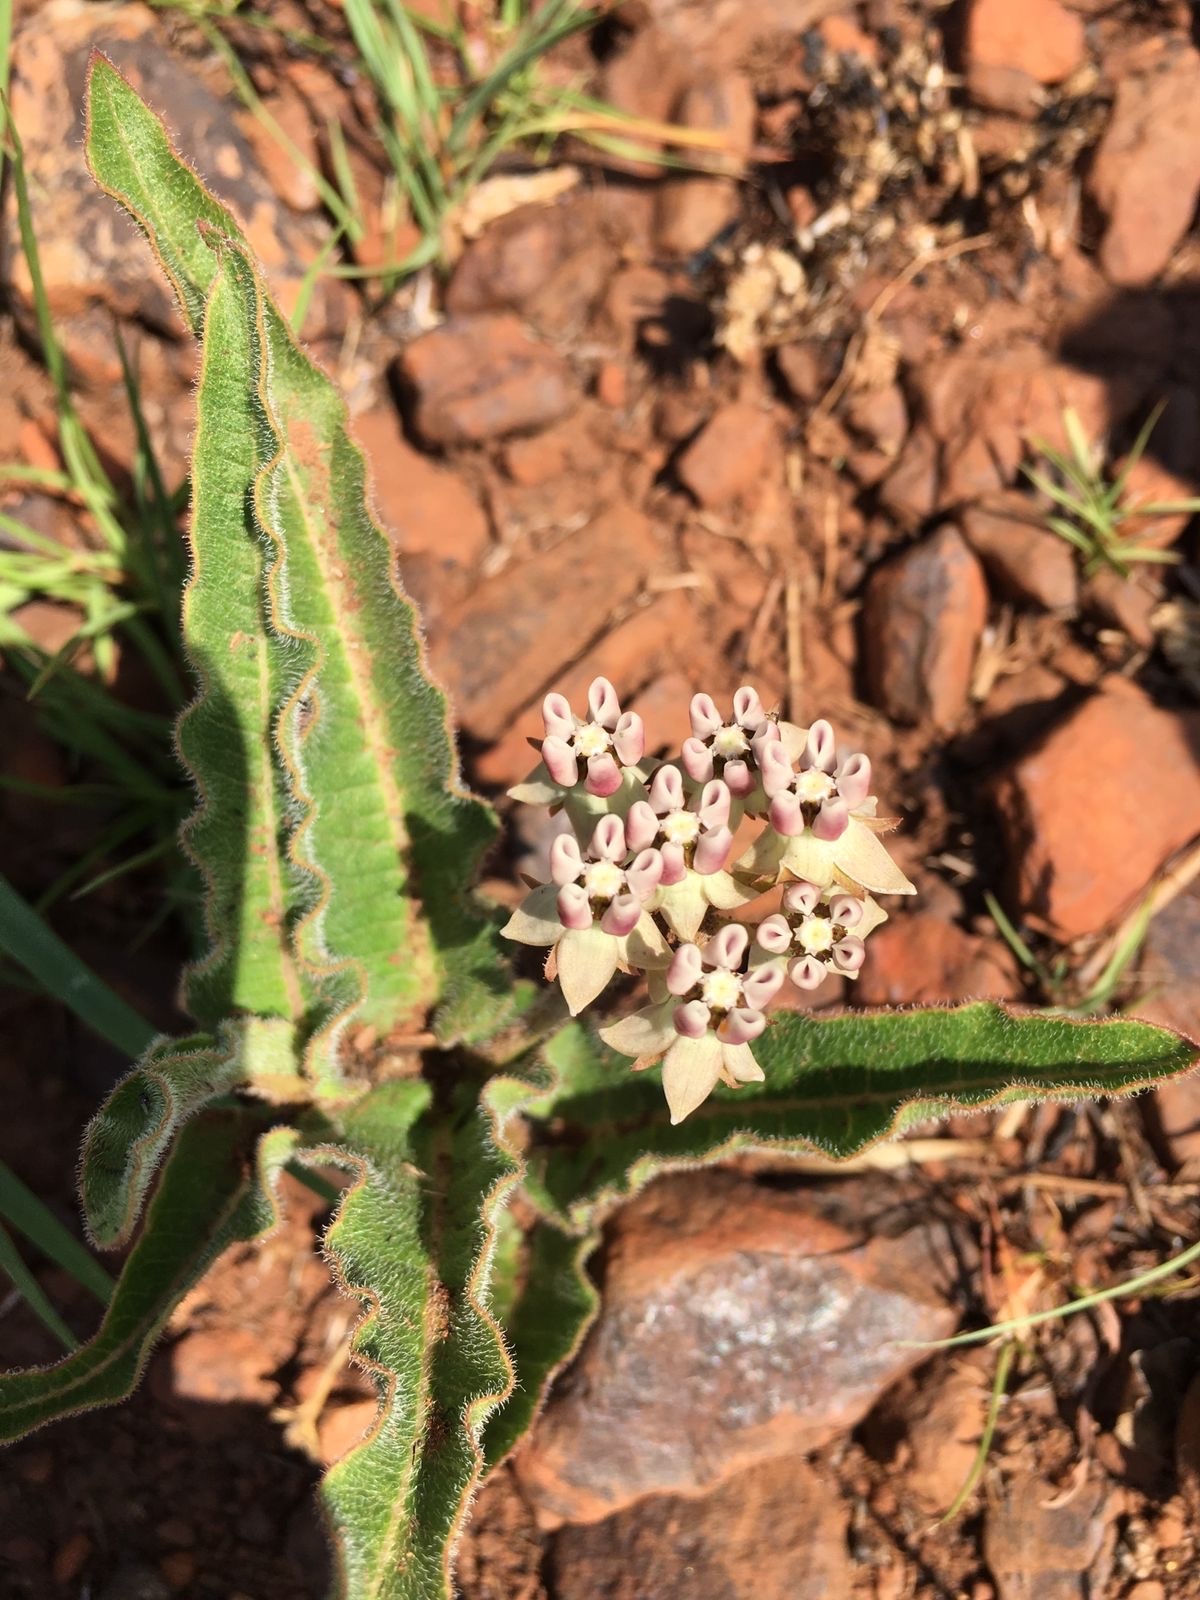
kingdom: Plantae
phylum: Tracheophyta
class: Magnoliopsida
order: Gentianales
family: Apocynaceae
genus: Asclepias
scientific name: Asclepias meliodora
